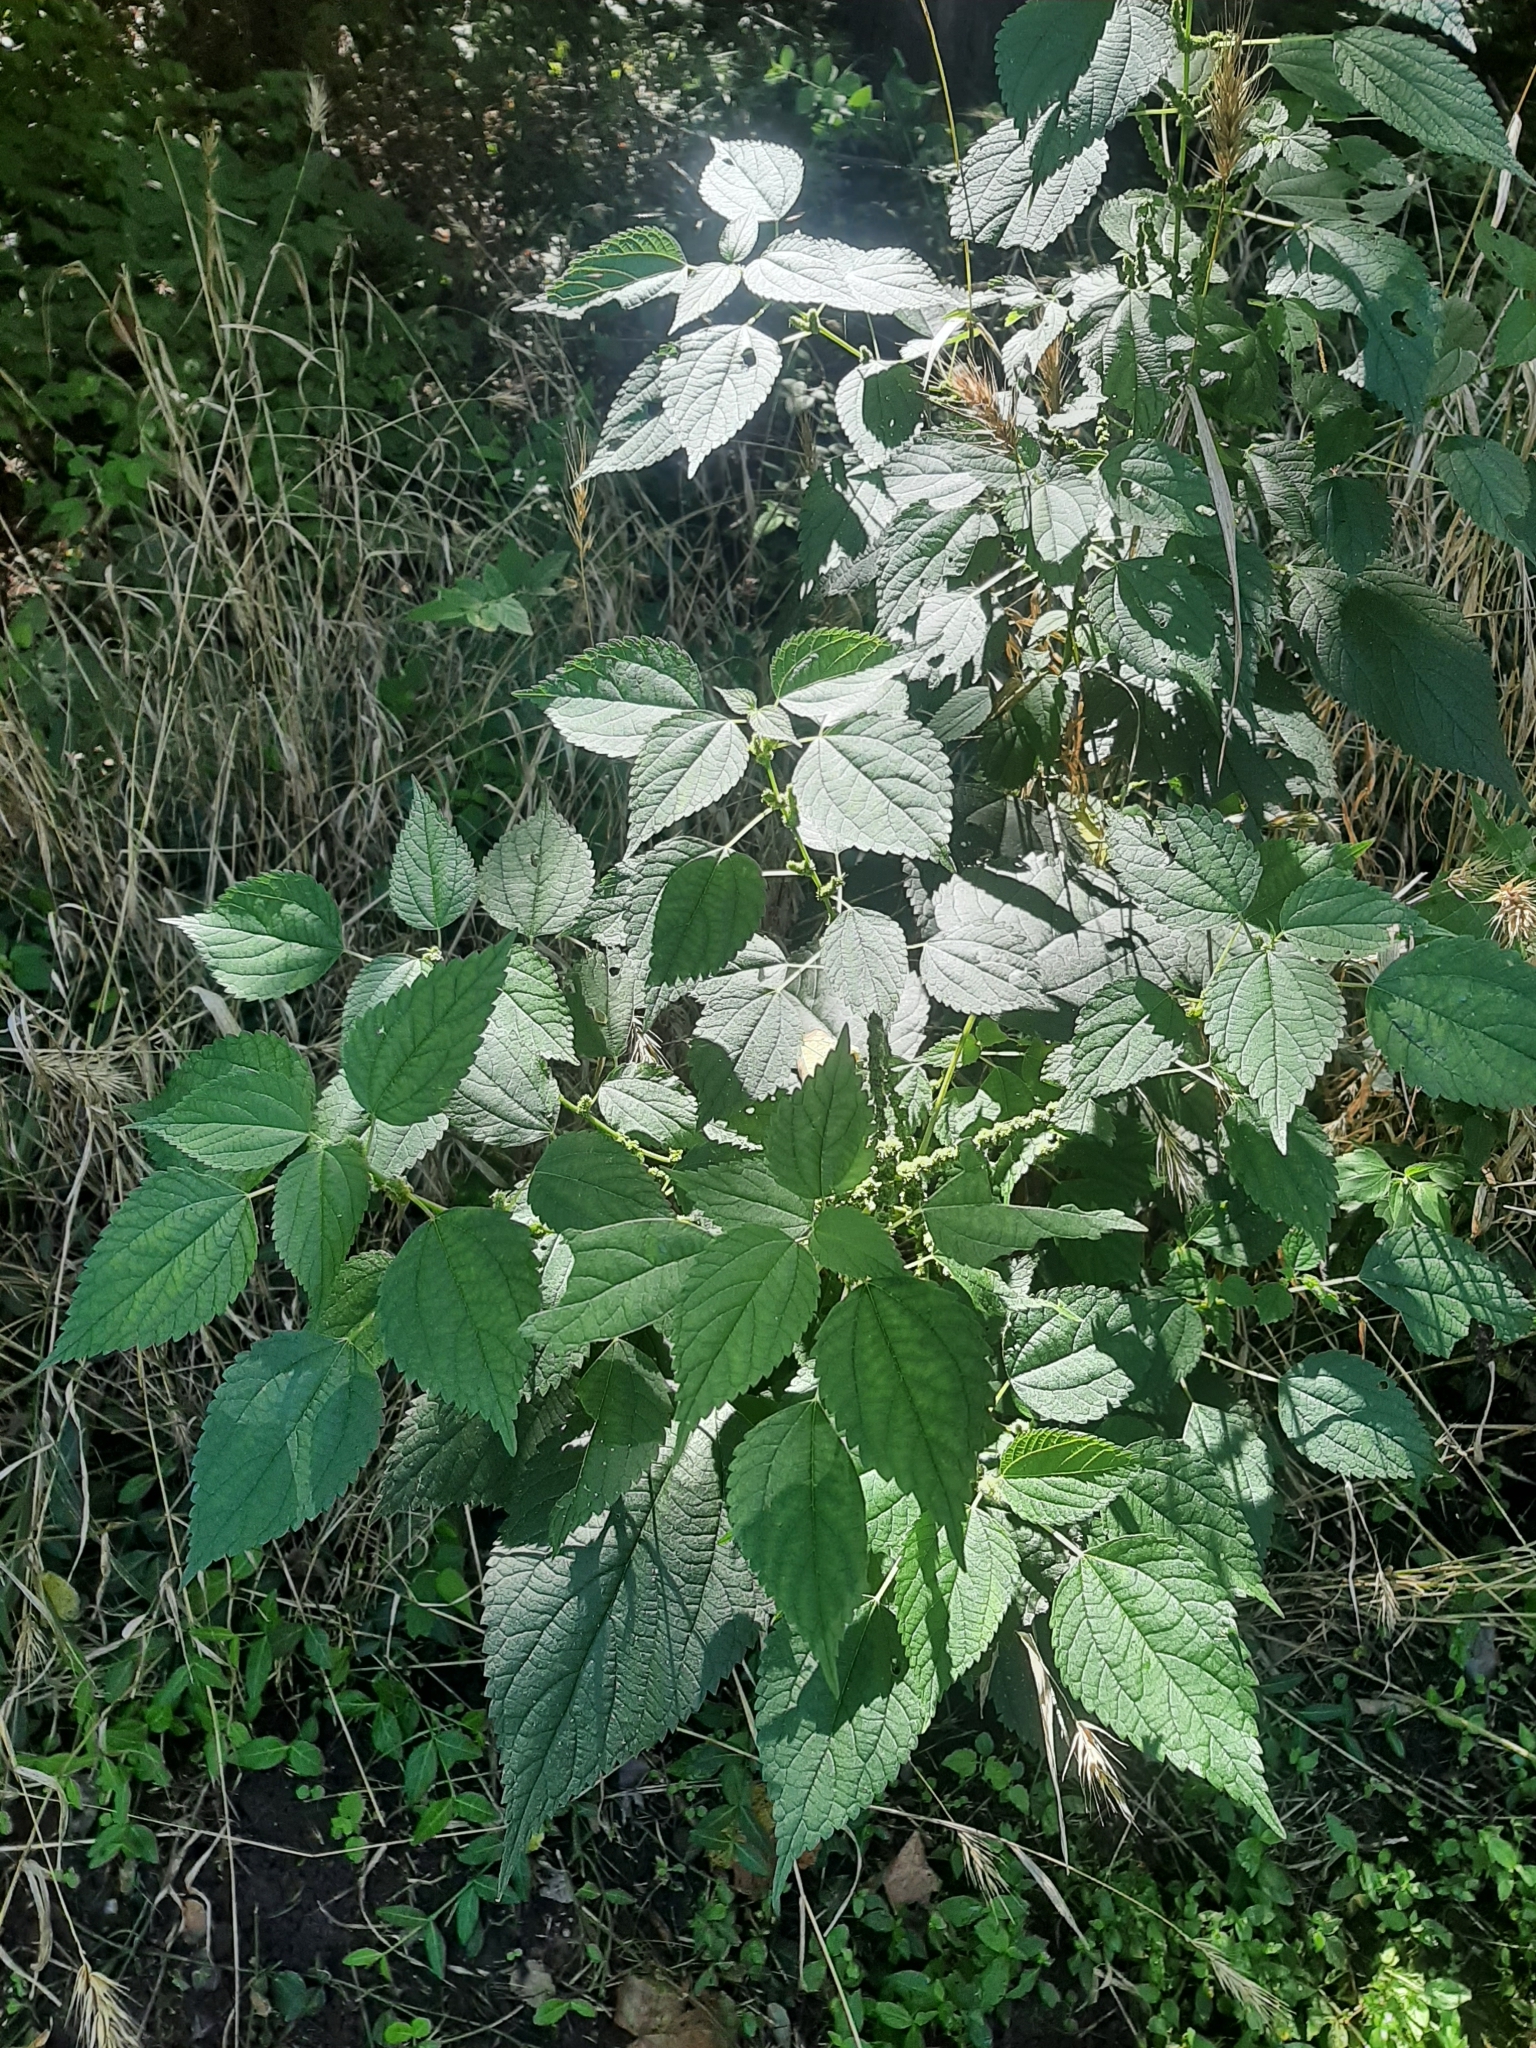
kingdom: Plantae
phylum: Tracheophyta
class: Magnoliopsida
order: Rosales
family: Urticaceae
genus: Boehmeria
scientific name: Boehmeria cylindrica
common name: Bog-hemp
